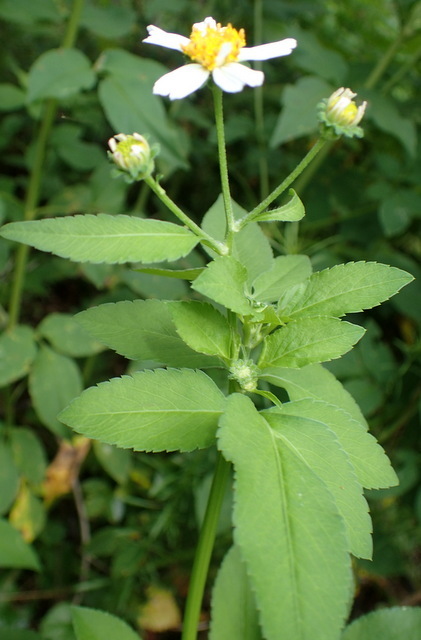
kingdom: Plantae
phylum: Tracheophyta
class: Magnoliopsida
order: Asterales
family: Asteraceae
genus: Bidens
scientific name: Bidens alba
